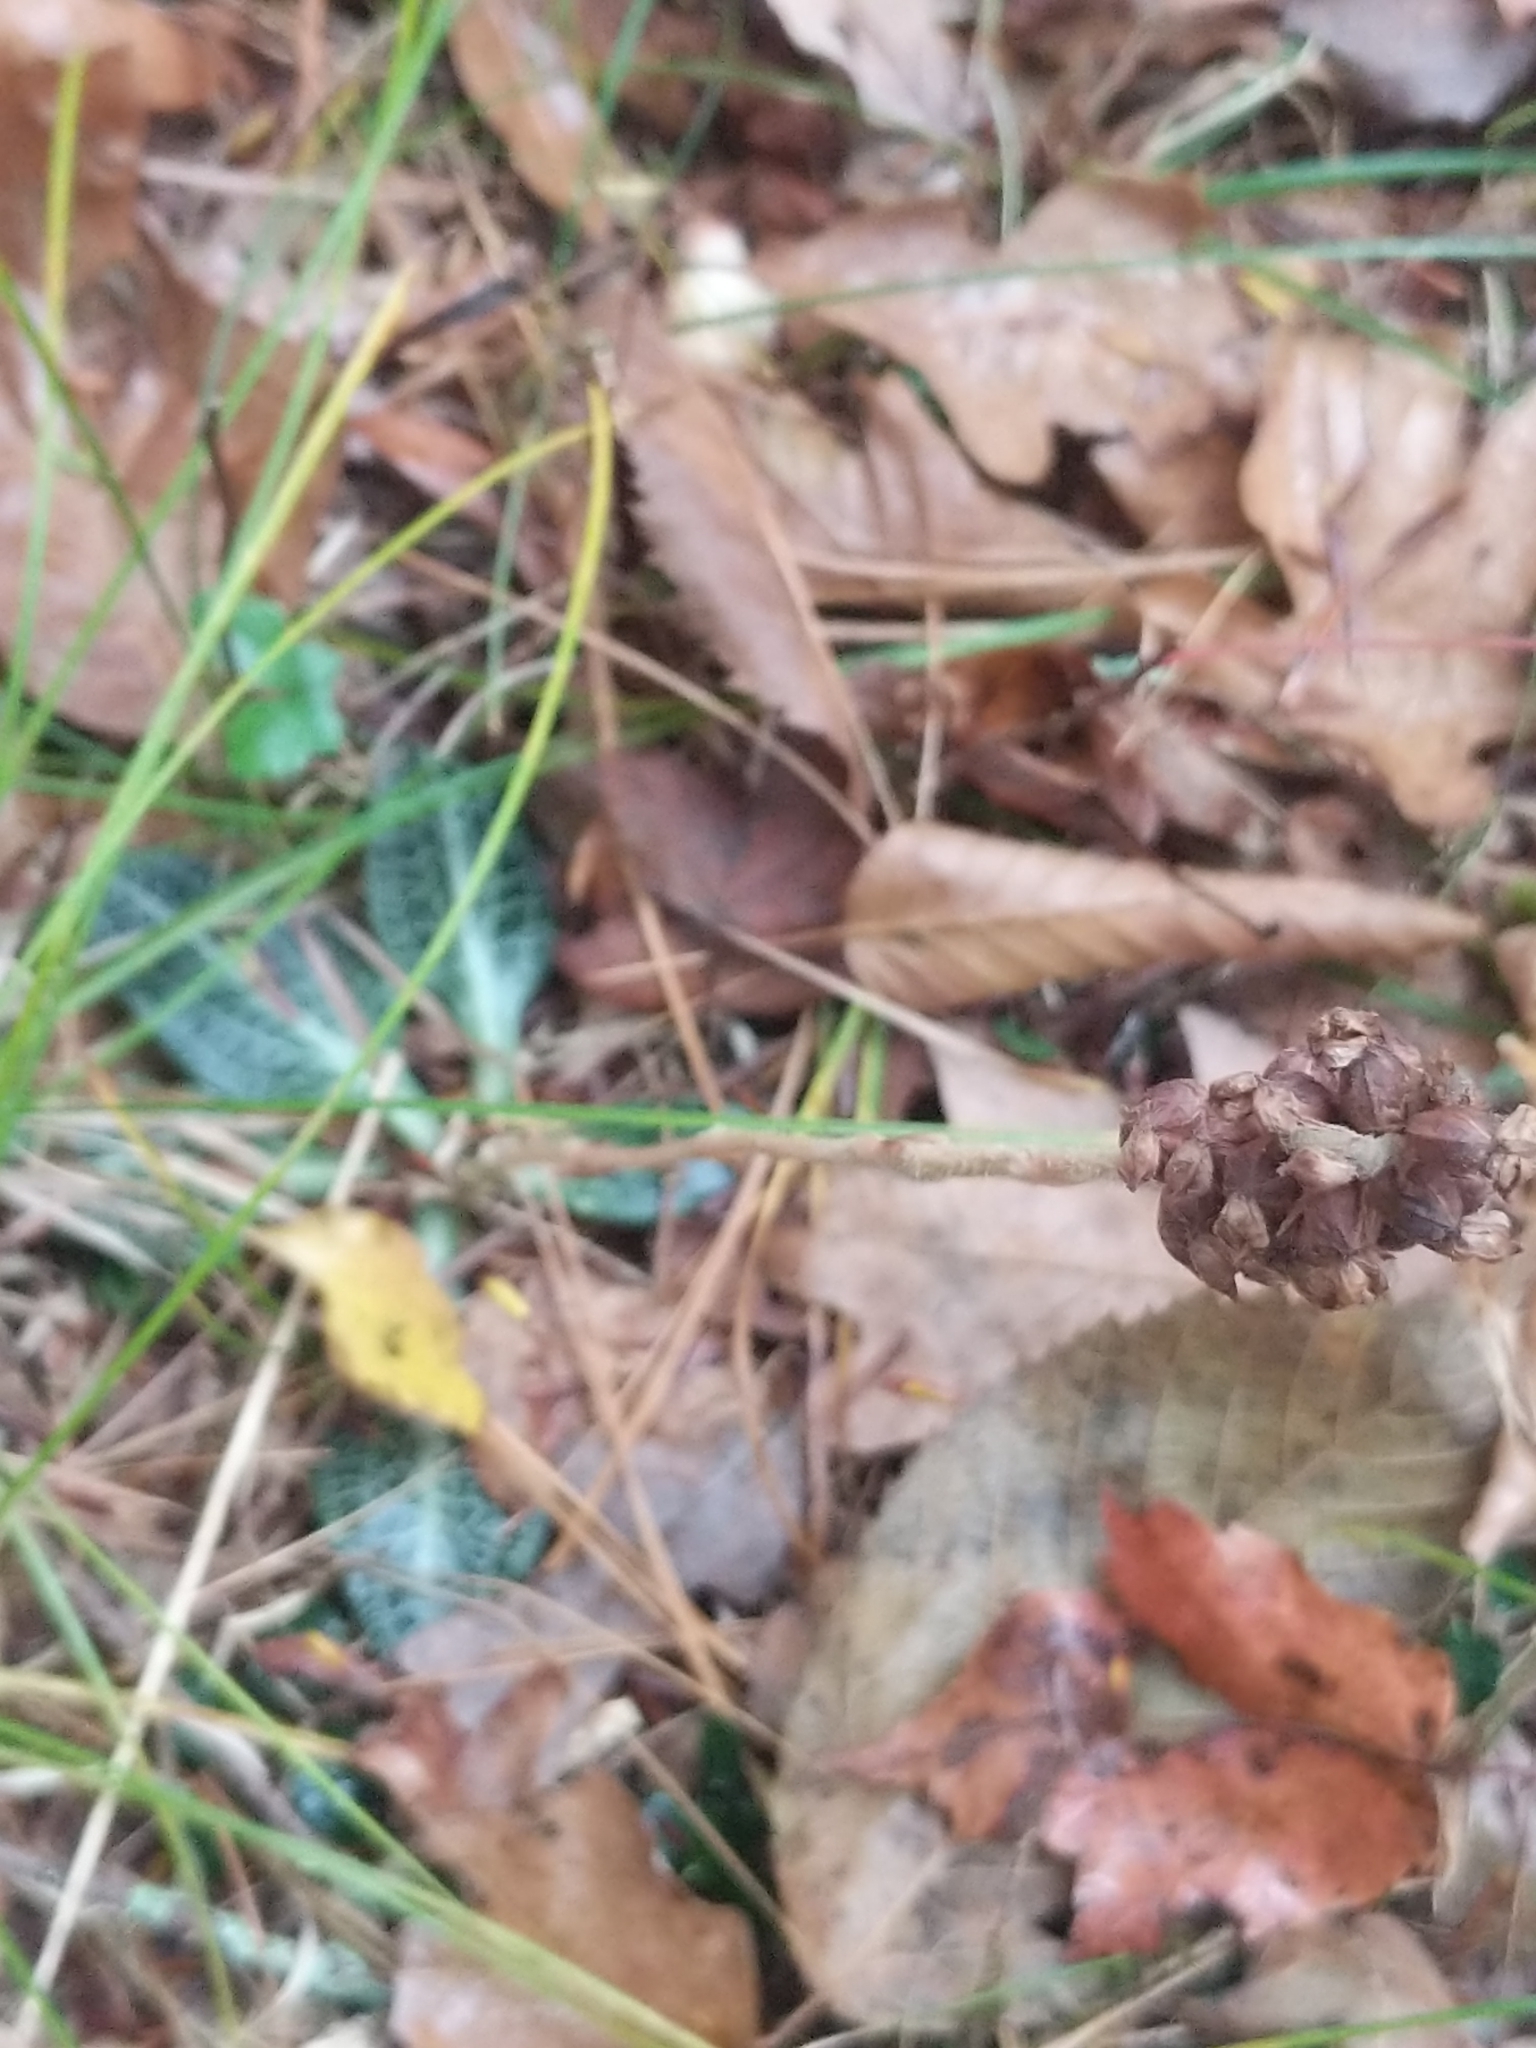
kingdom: Plantae
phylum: Tracheophyta
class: Liliopsida
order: Asparagales
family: Orchidaceae
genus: Goodyera
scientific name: Goodyera pubescens
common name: Downy rattlesnake-plantain
